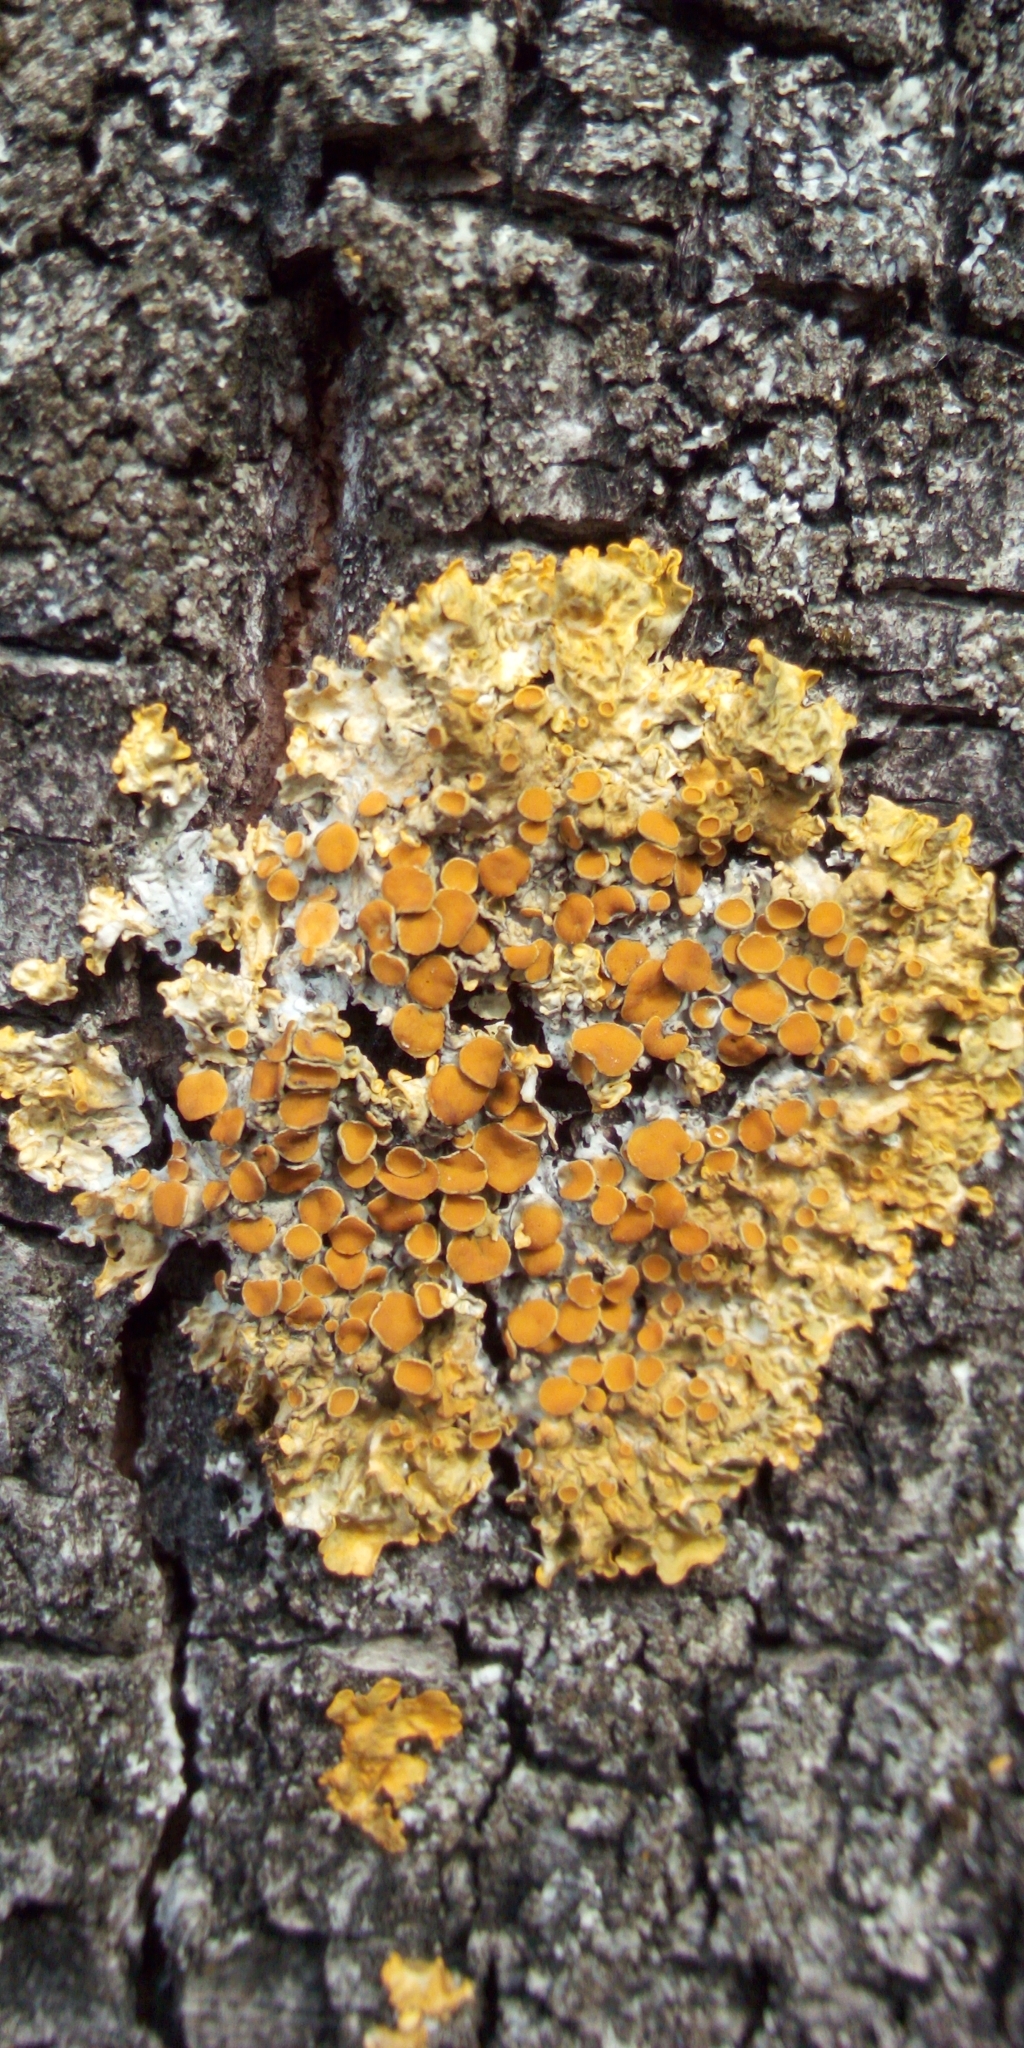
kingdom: Fungi
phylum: Ascomycota
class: Lecanoromycetes
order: Teloschistales
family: Teloschistaceae
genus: Xanthoria
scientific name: Xanthoria parietina
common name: Common orange lichen
